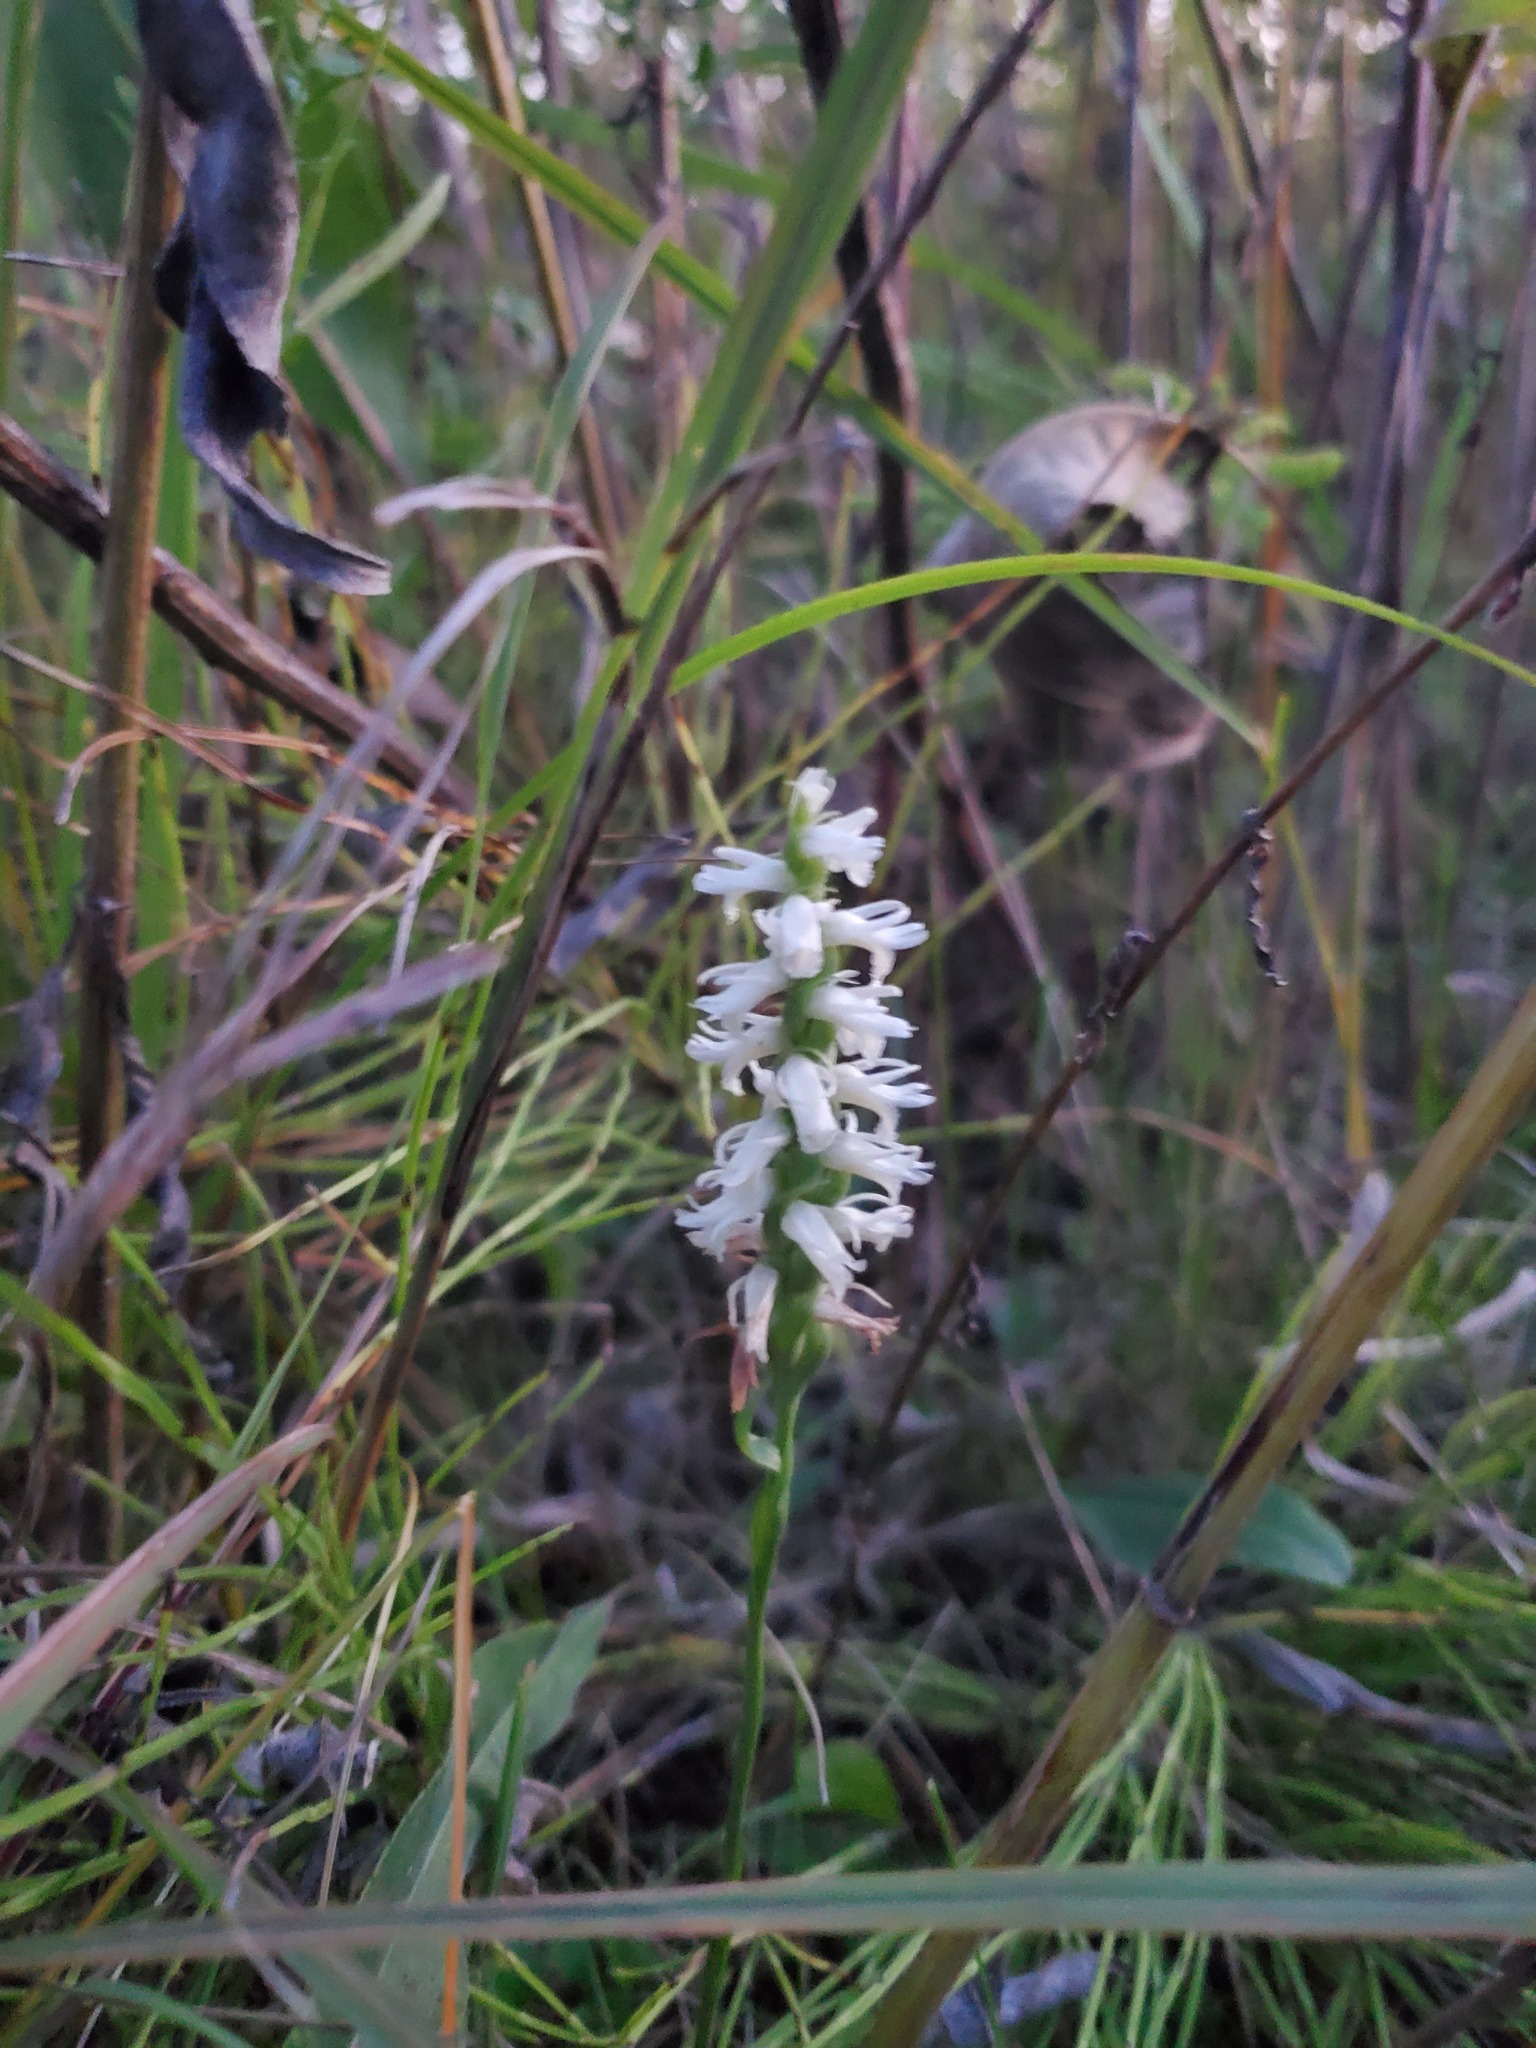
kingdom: Plantae
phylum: Tracheophyta
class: Liliopsida
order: Asparagales
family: Orchidaceae
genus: Spiranthes
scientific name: Spiranthes magnicamporum
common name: Great plains ladies'-tresses
